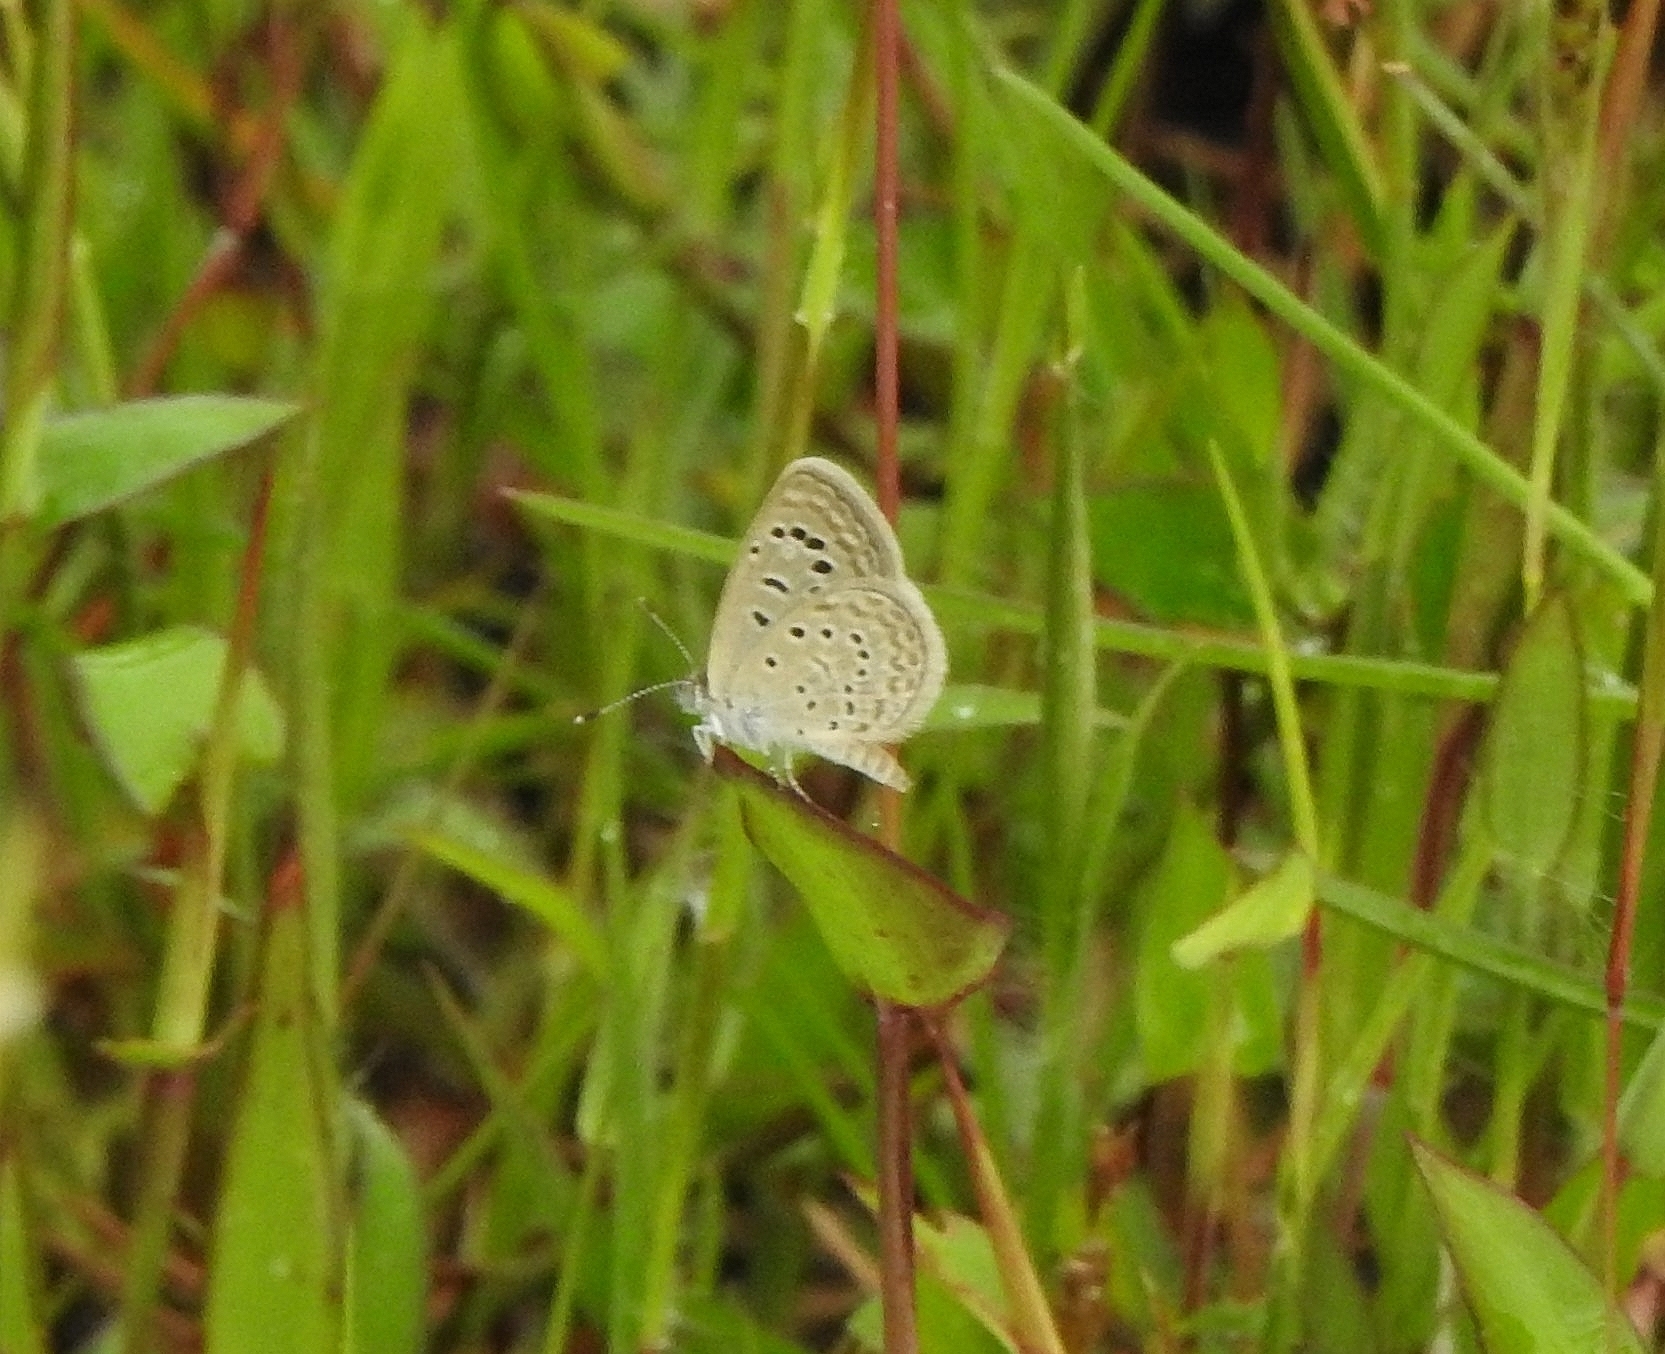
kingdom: Animalia
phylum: Arthropoda
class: Insecta
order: Lepidoptera
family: Lycaenidae
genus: Zizeeria
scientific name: Zizeeria karsandra
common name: Dark grass blue
